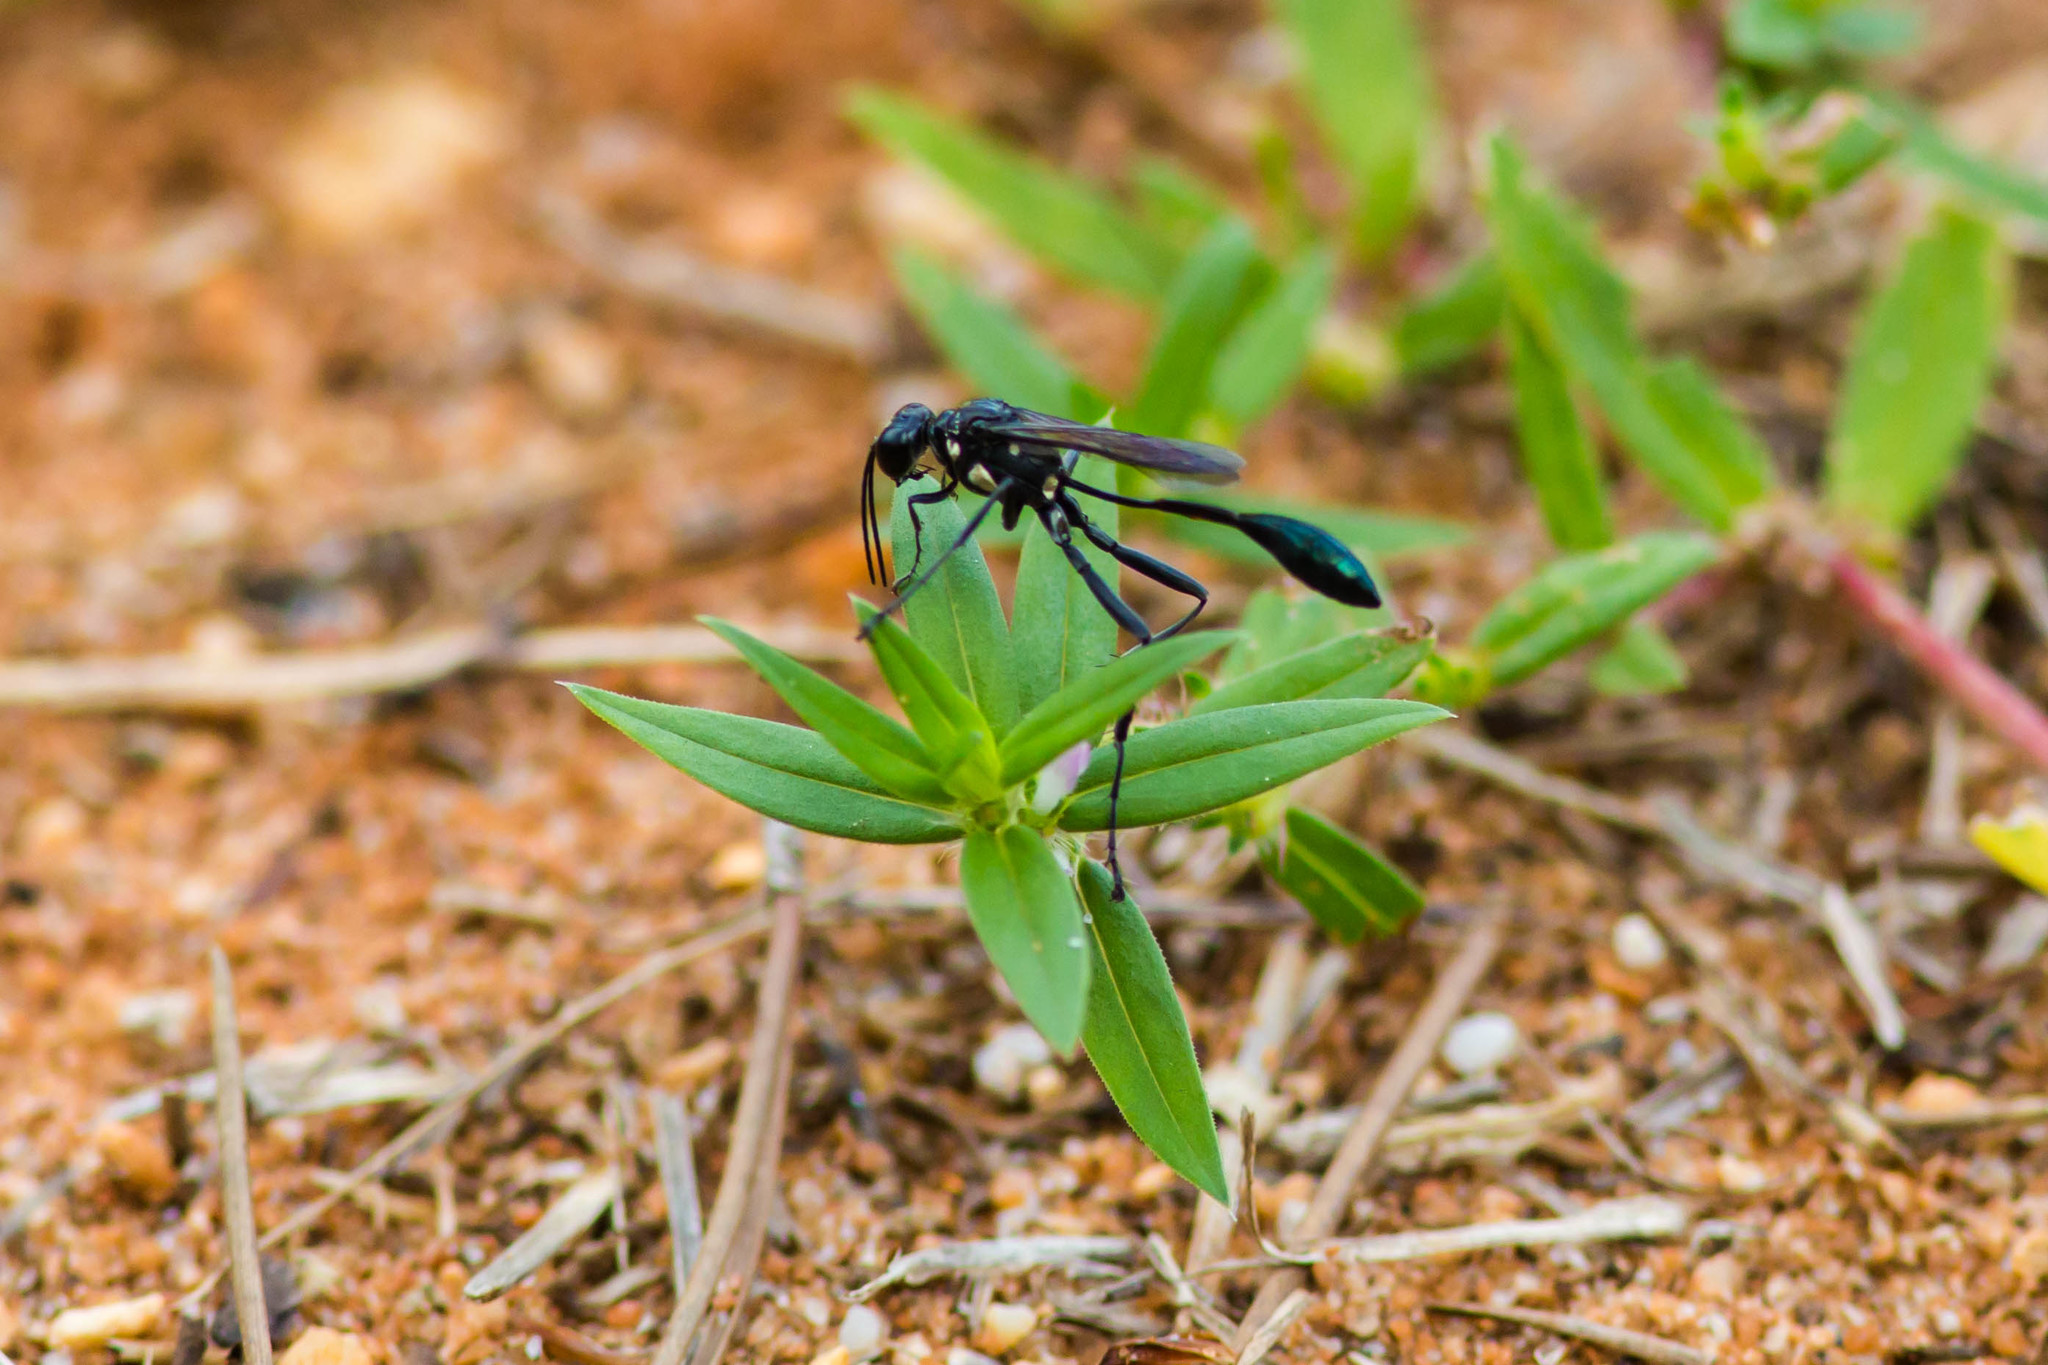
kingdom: Animalia
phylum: Arthropoda
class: Insecta
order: Hymenoptera
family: Sphecidae
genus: Eremnophila
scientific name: Eremnophila aureonotata
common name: Gold-marked thread-waisted wasp
